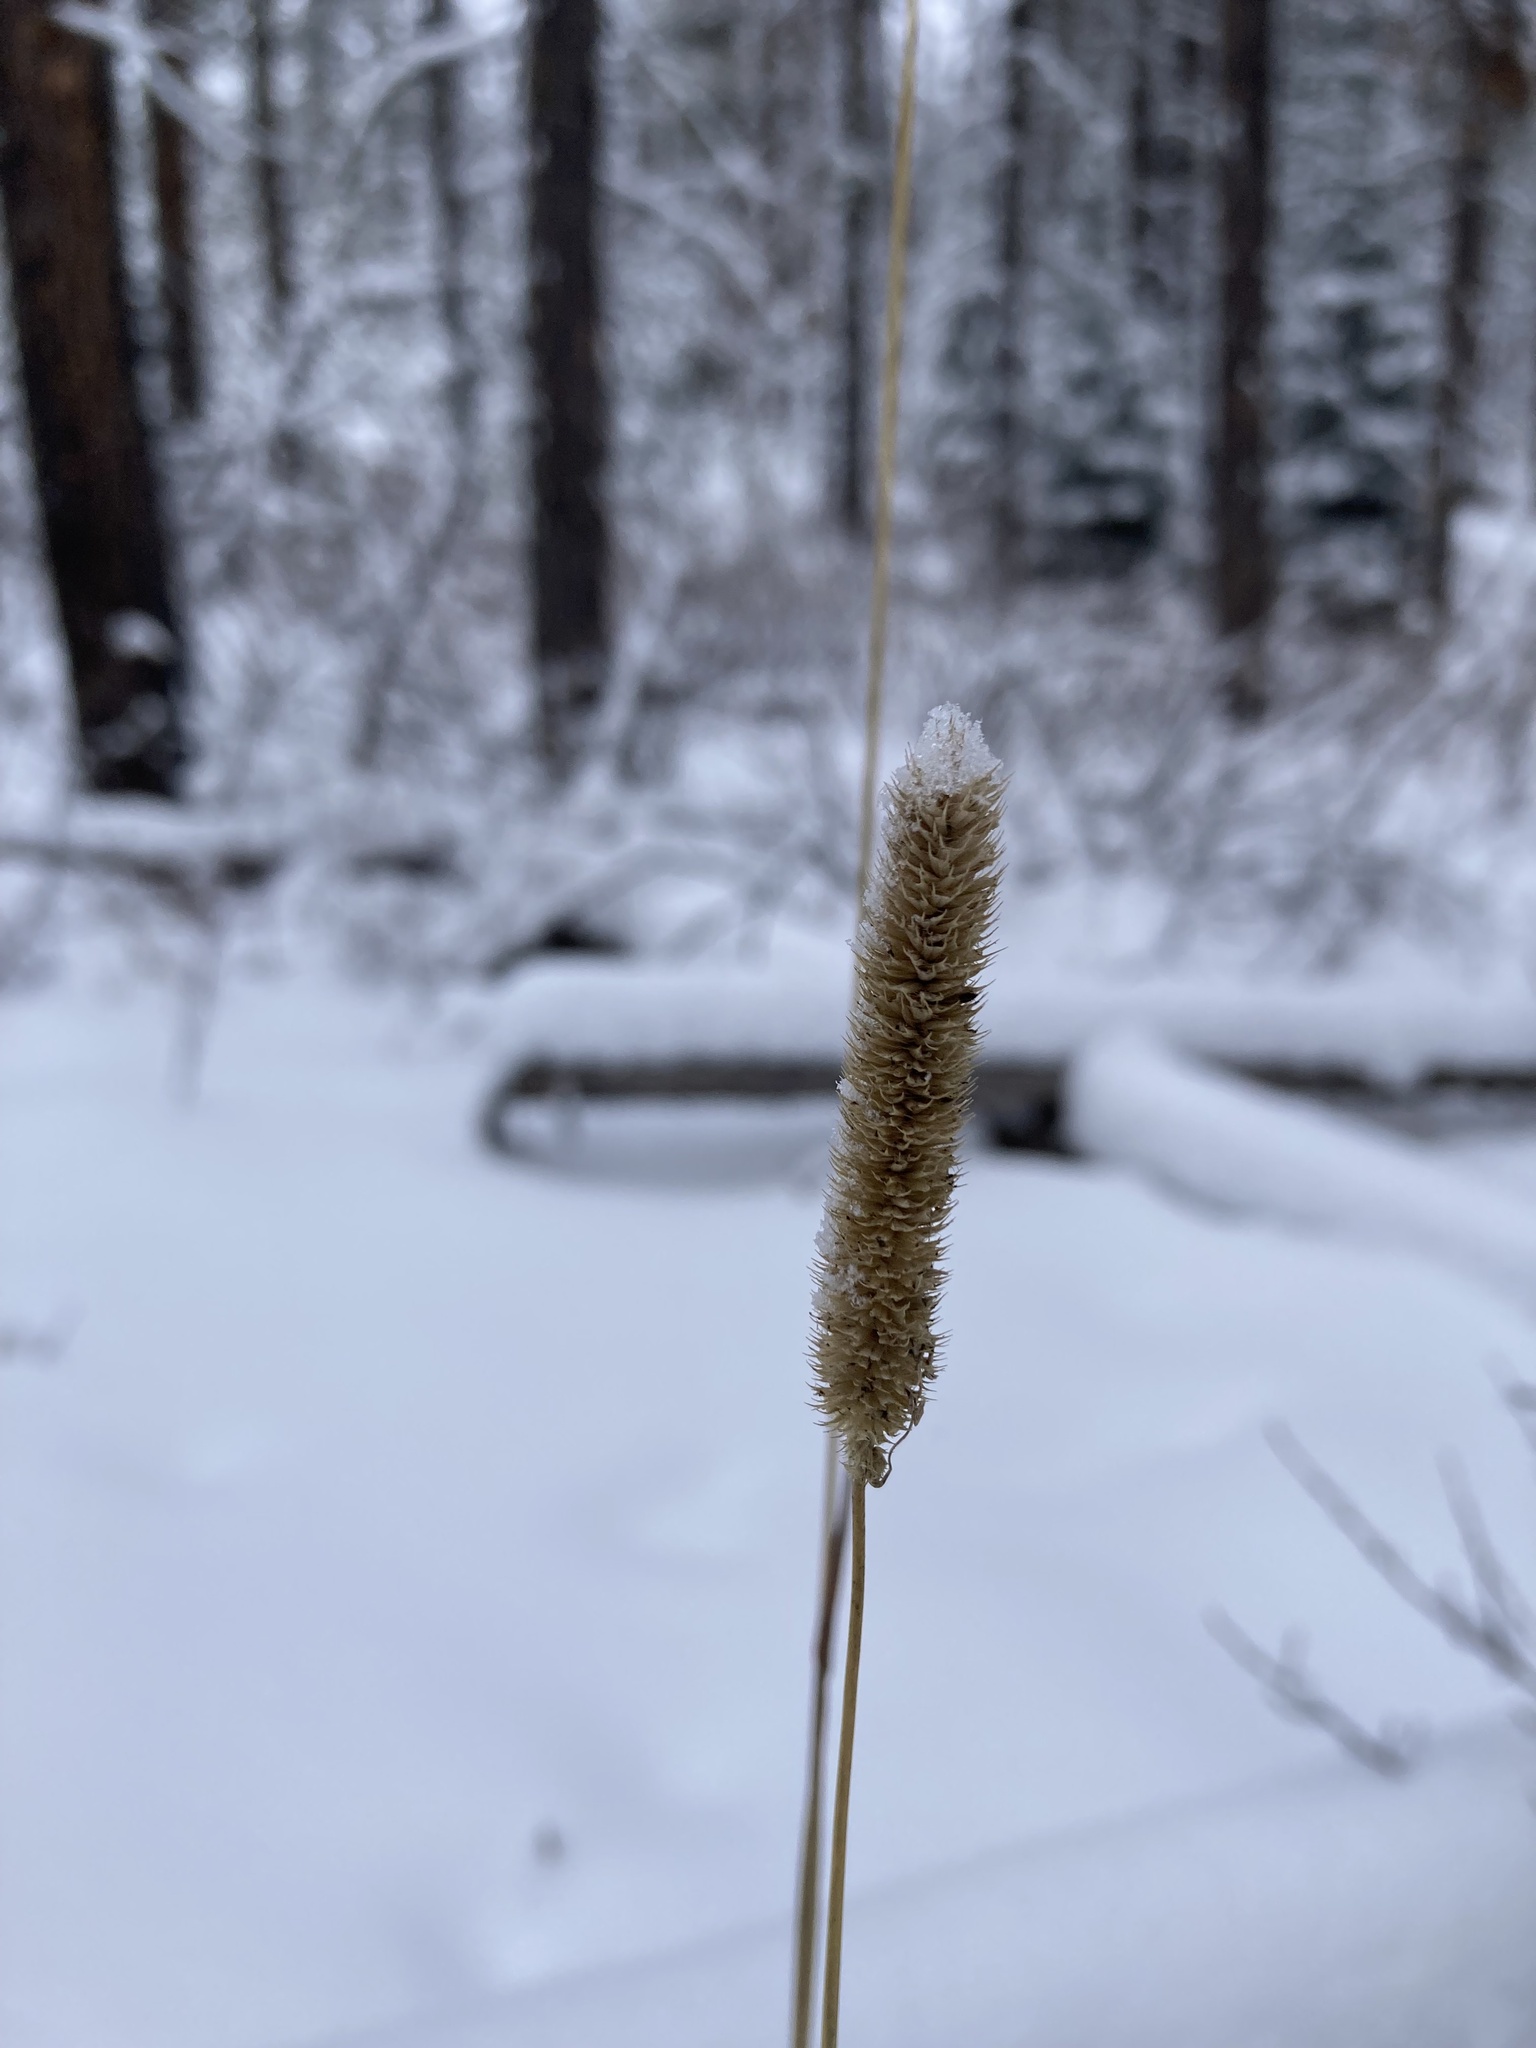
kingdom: Plantae
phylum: Tracheophyta
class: Liliopsida
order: Poales
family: Poaceae
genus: Phleum
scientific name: Phleum pratense
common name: Timothy grass
